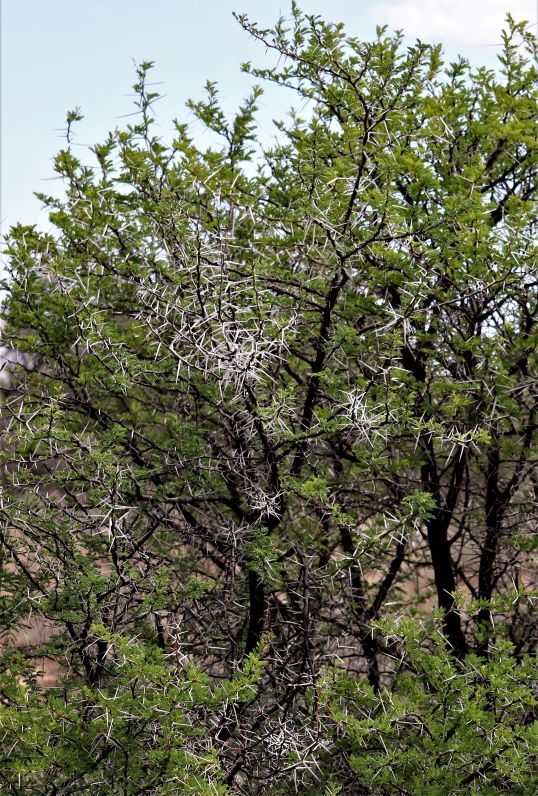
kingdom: Plantae
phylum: Tracheophyta
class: Magnoliopsida
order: Fabales
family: Fabaceae
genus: Vachellia
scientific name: Vachellia karroo
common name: Sweet thorn
